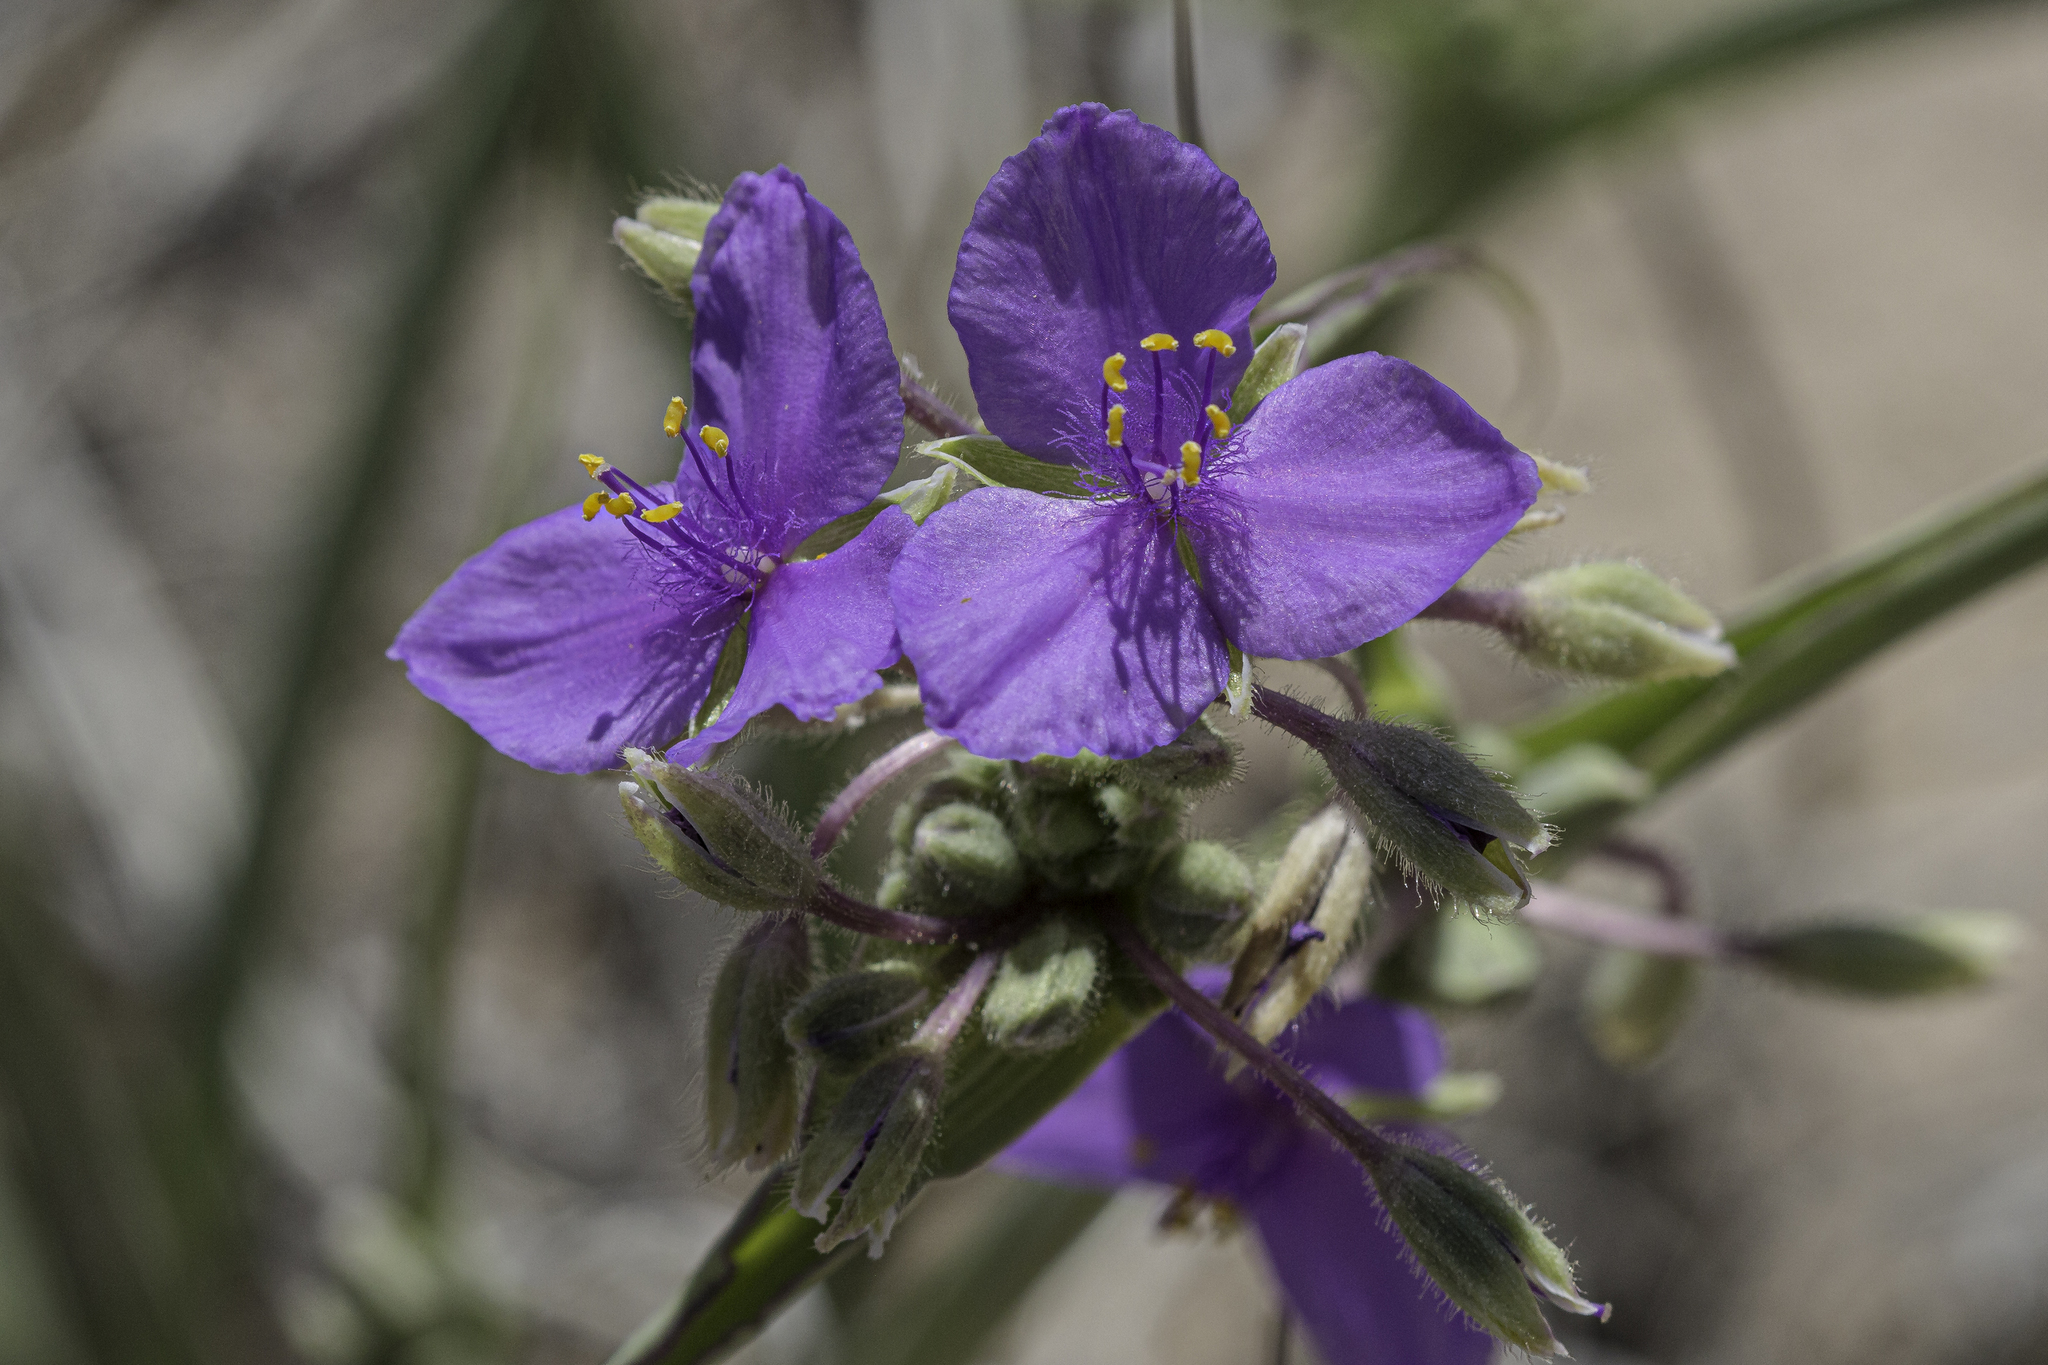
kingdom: Plantae
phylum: Tracheophyta
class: Liliopsida
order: Commelinales
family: Commelinaceae
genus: Tradescantia
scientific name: Tradescantia occidentalis
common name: Prairie spiderwort
